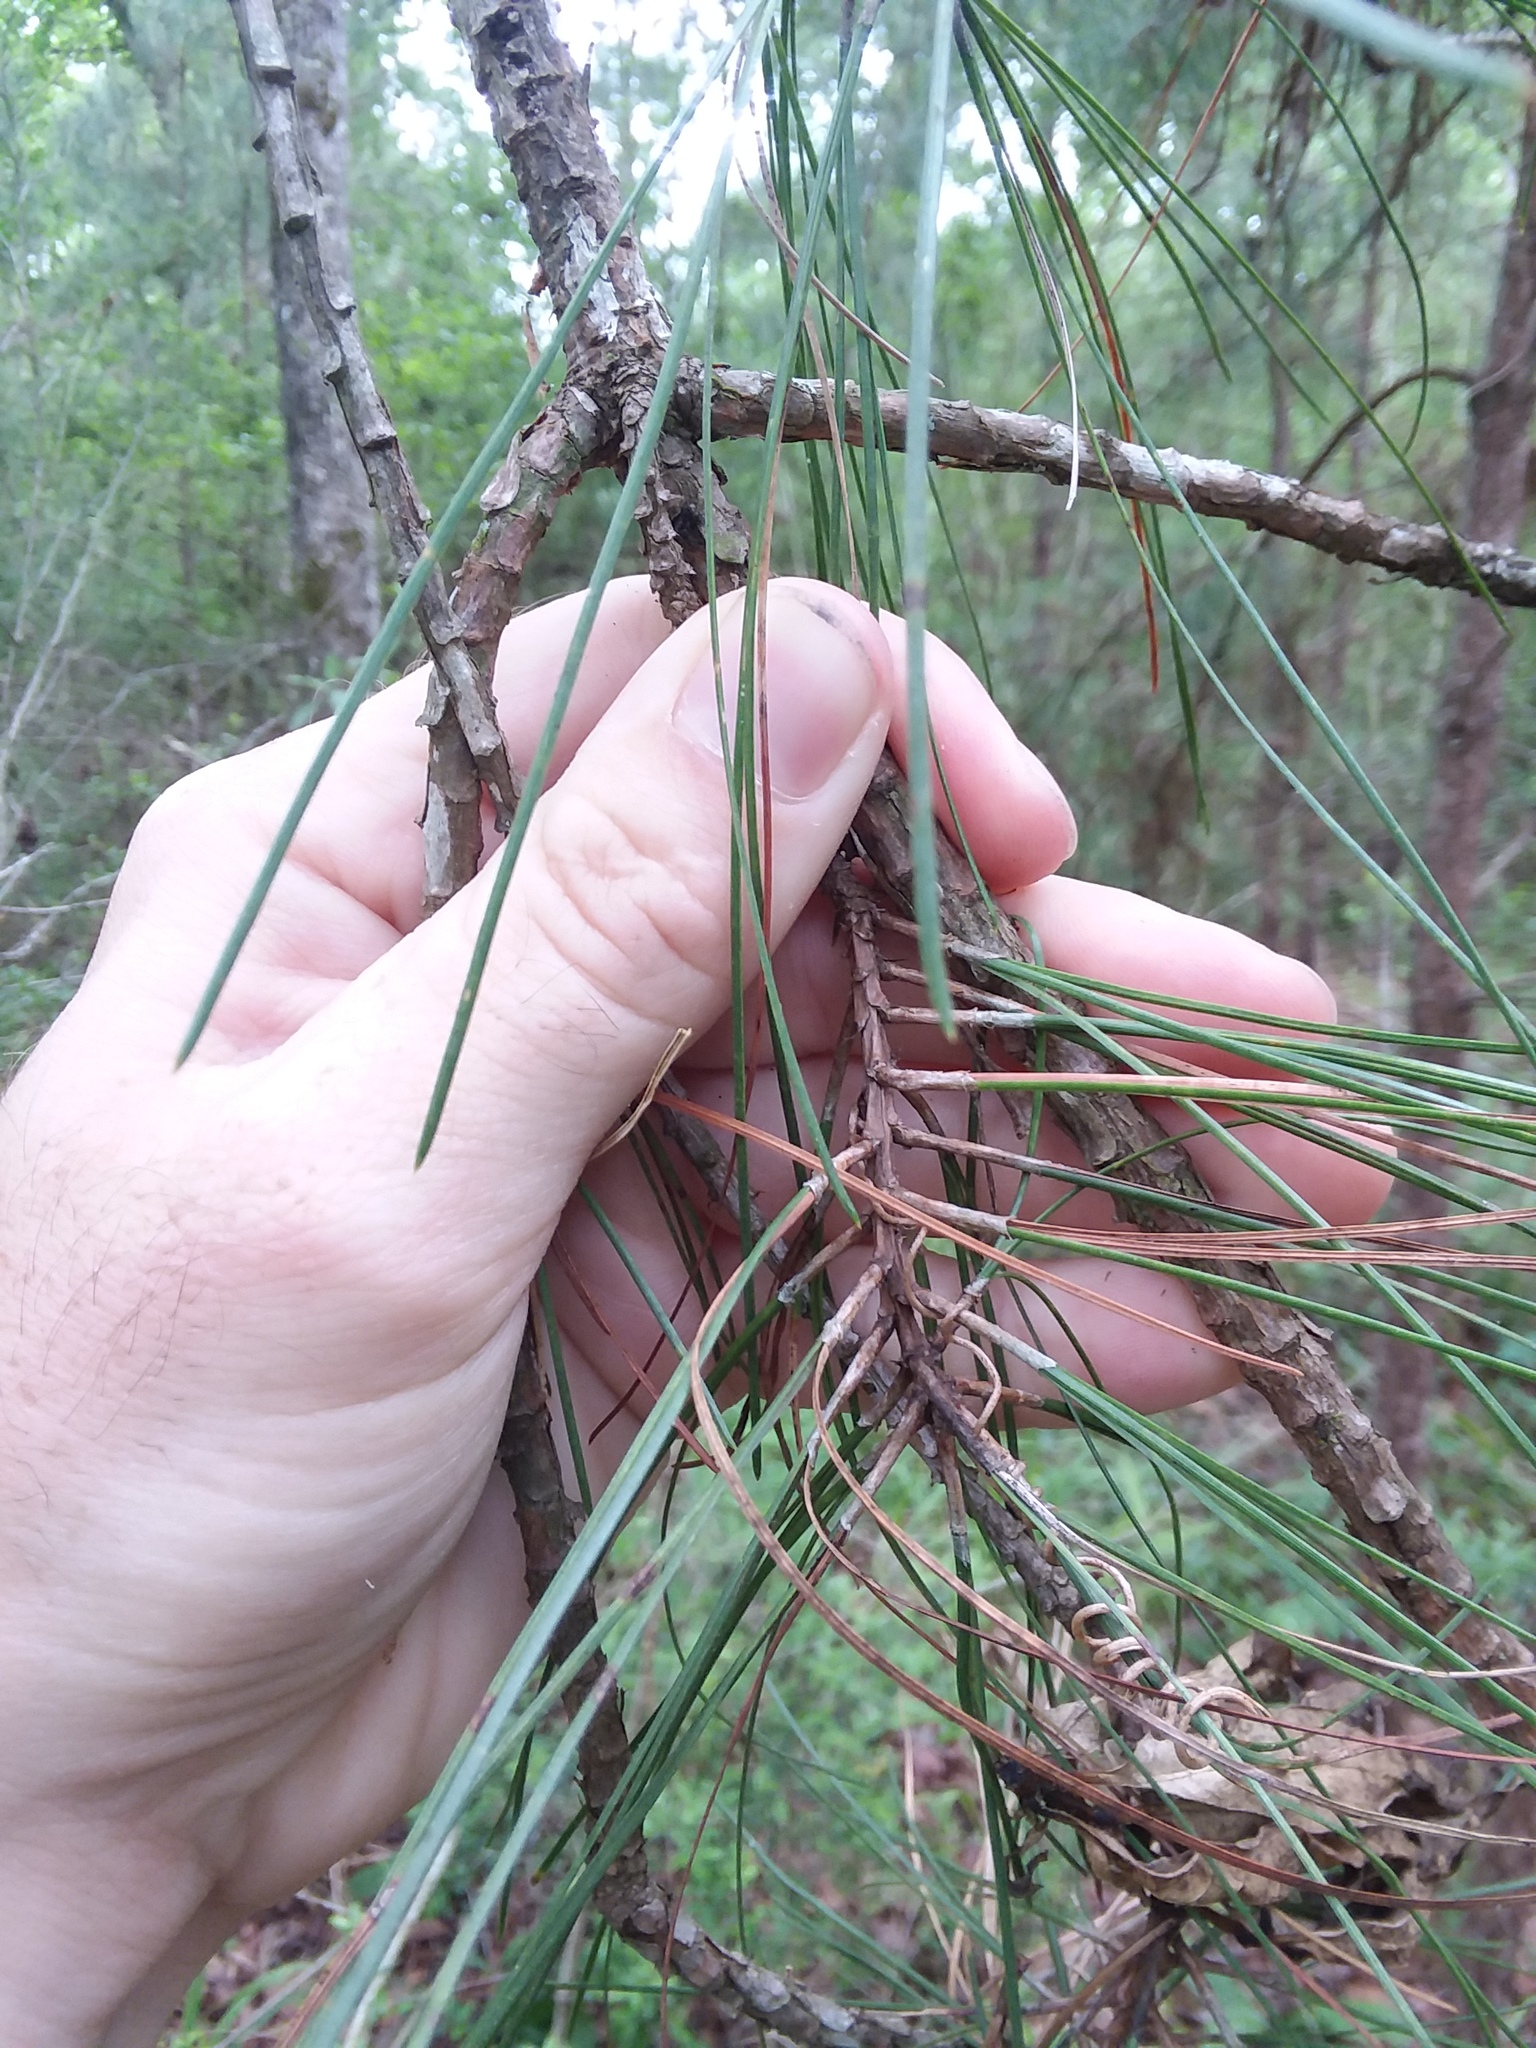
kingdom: Plantae
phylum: Tracheophyta
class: Pinopsida
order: Pinales
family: Pinaceae
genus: Pinus
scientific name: Pinus taeda
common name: Loblolly pine
